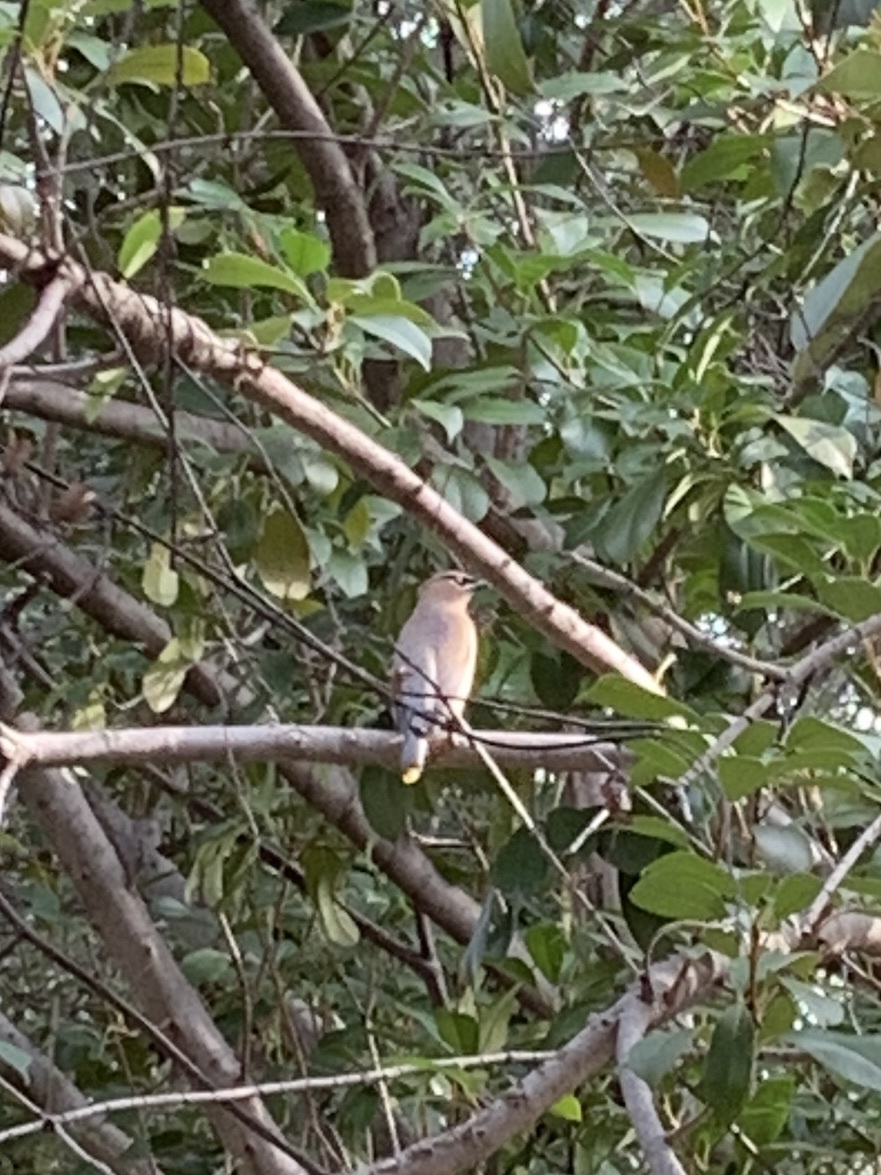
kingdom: Animalia
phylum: Chordata
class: Aves
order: Passeriformes
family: Bombycillidae
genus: Bombycilla
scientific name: Bombycilla cedrorum
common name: Cedar waxwing
